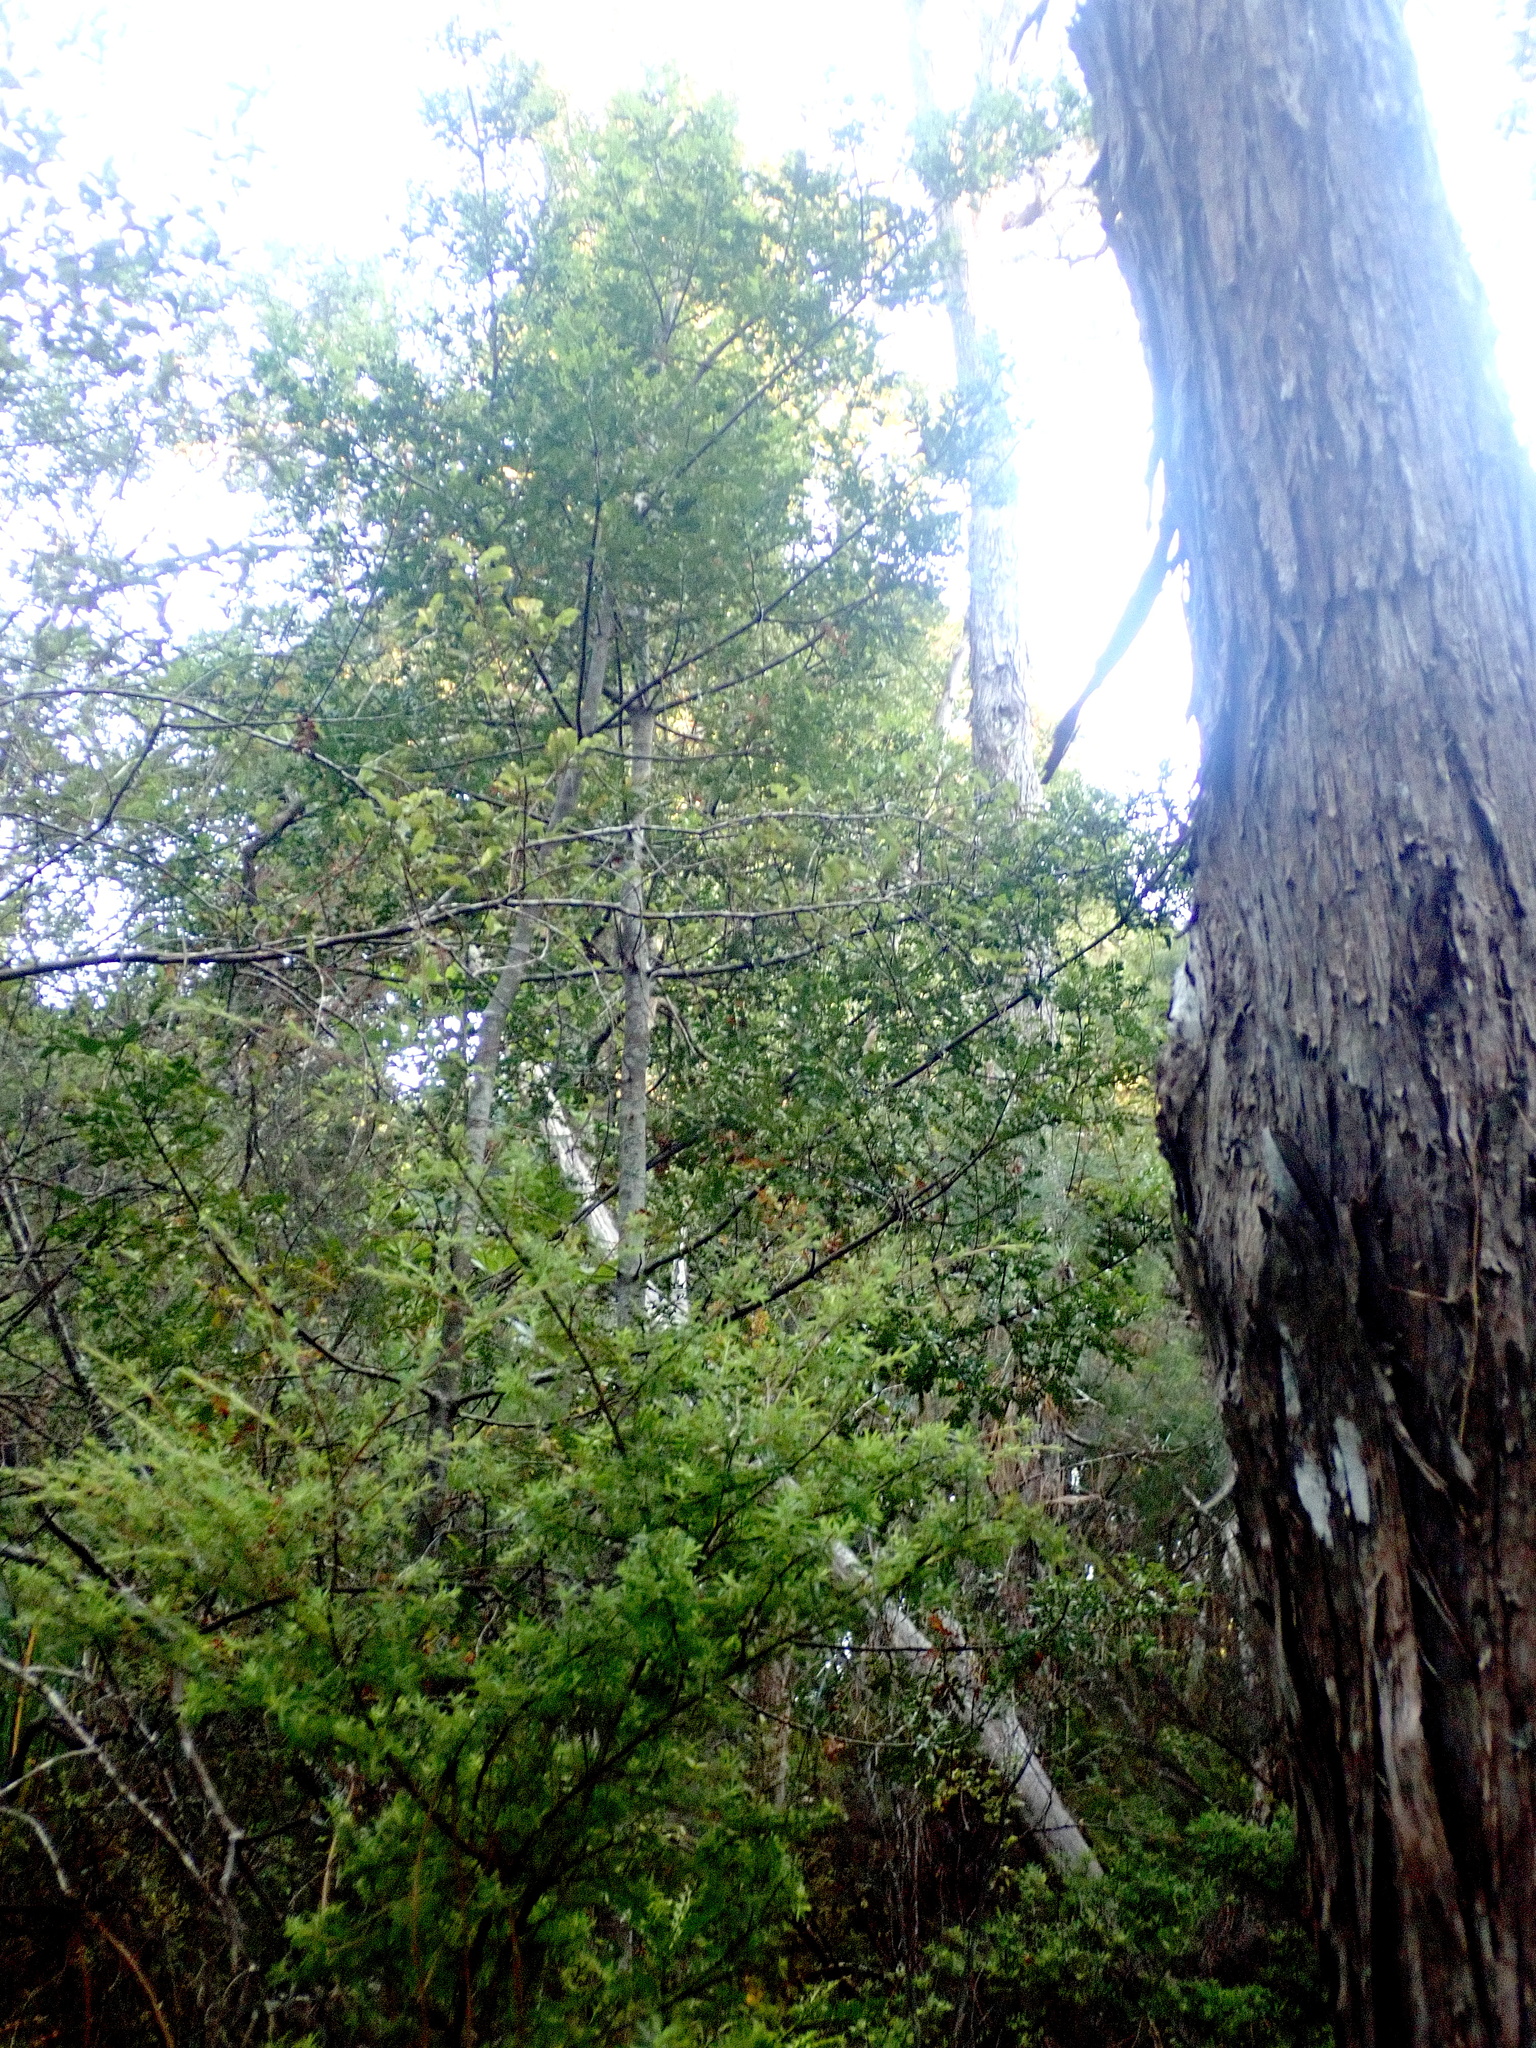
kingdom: Plantae
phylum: Tracheophyta
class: Pinopsida
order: Pinales
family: Phyllocladaceae
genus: Phyllocladus
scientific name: Phyllocladus trichomanoides
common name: Celery pine
